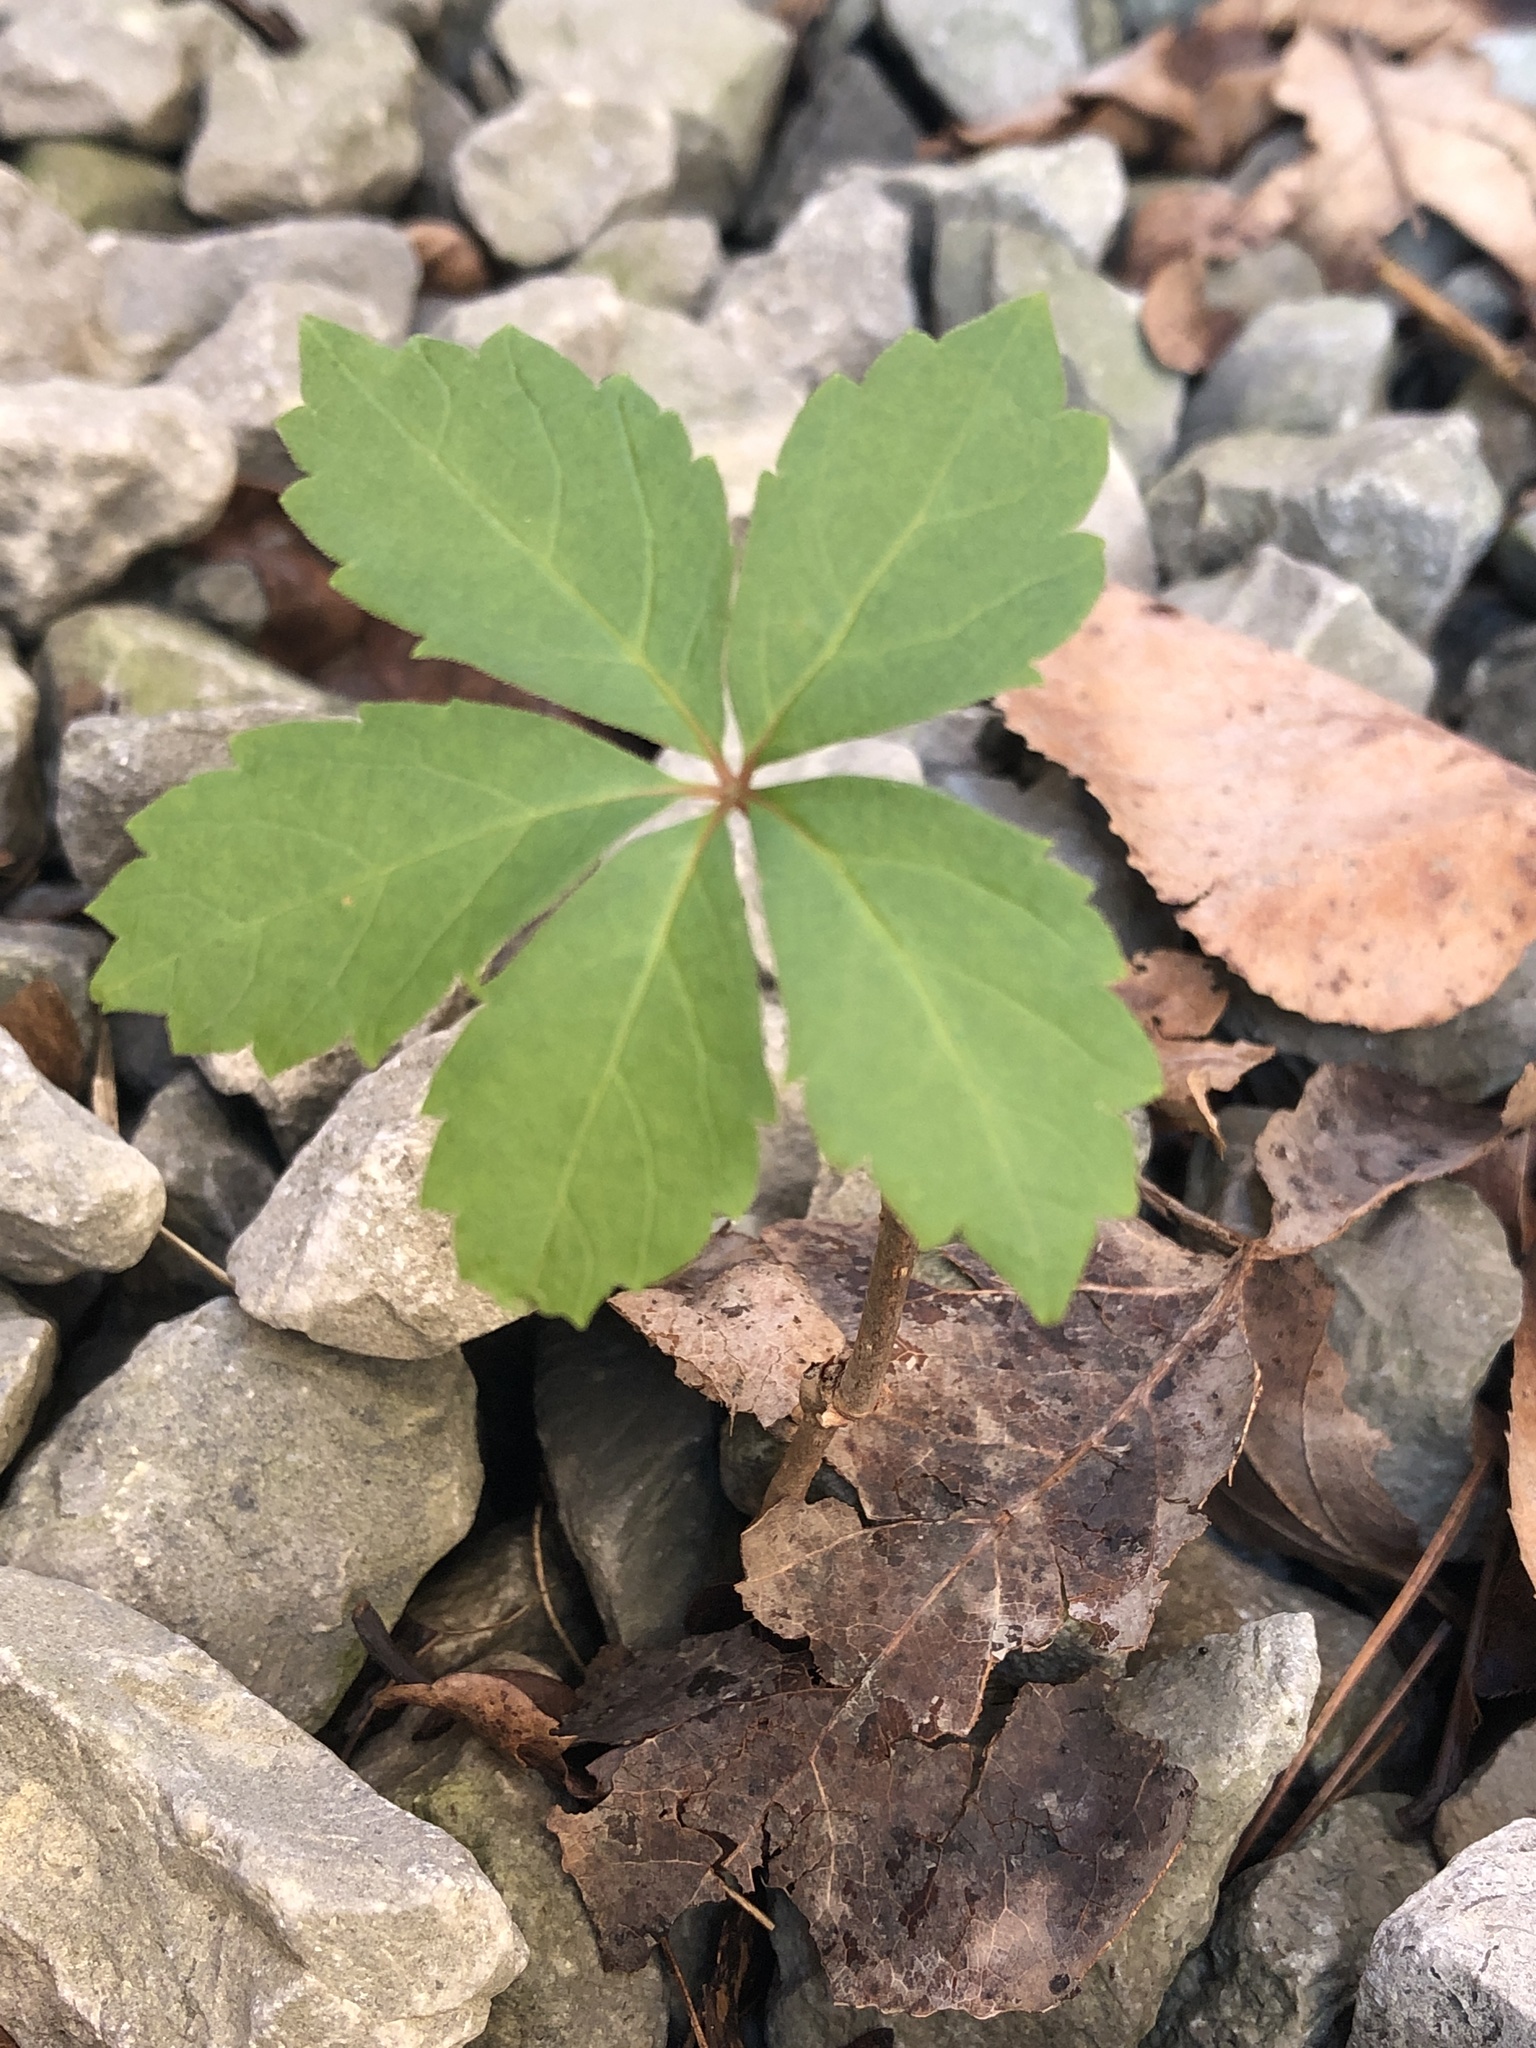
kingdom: Plantae
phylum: Tracheophyta
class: Magnoliopsida
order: Vitales
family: Vitaceae
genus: Parthenocissus
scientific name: Parthenocissus quinquefolia
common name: Virginia-creeper
